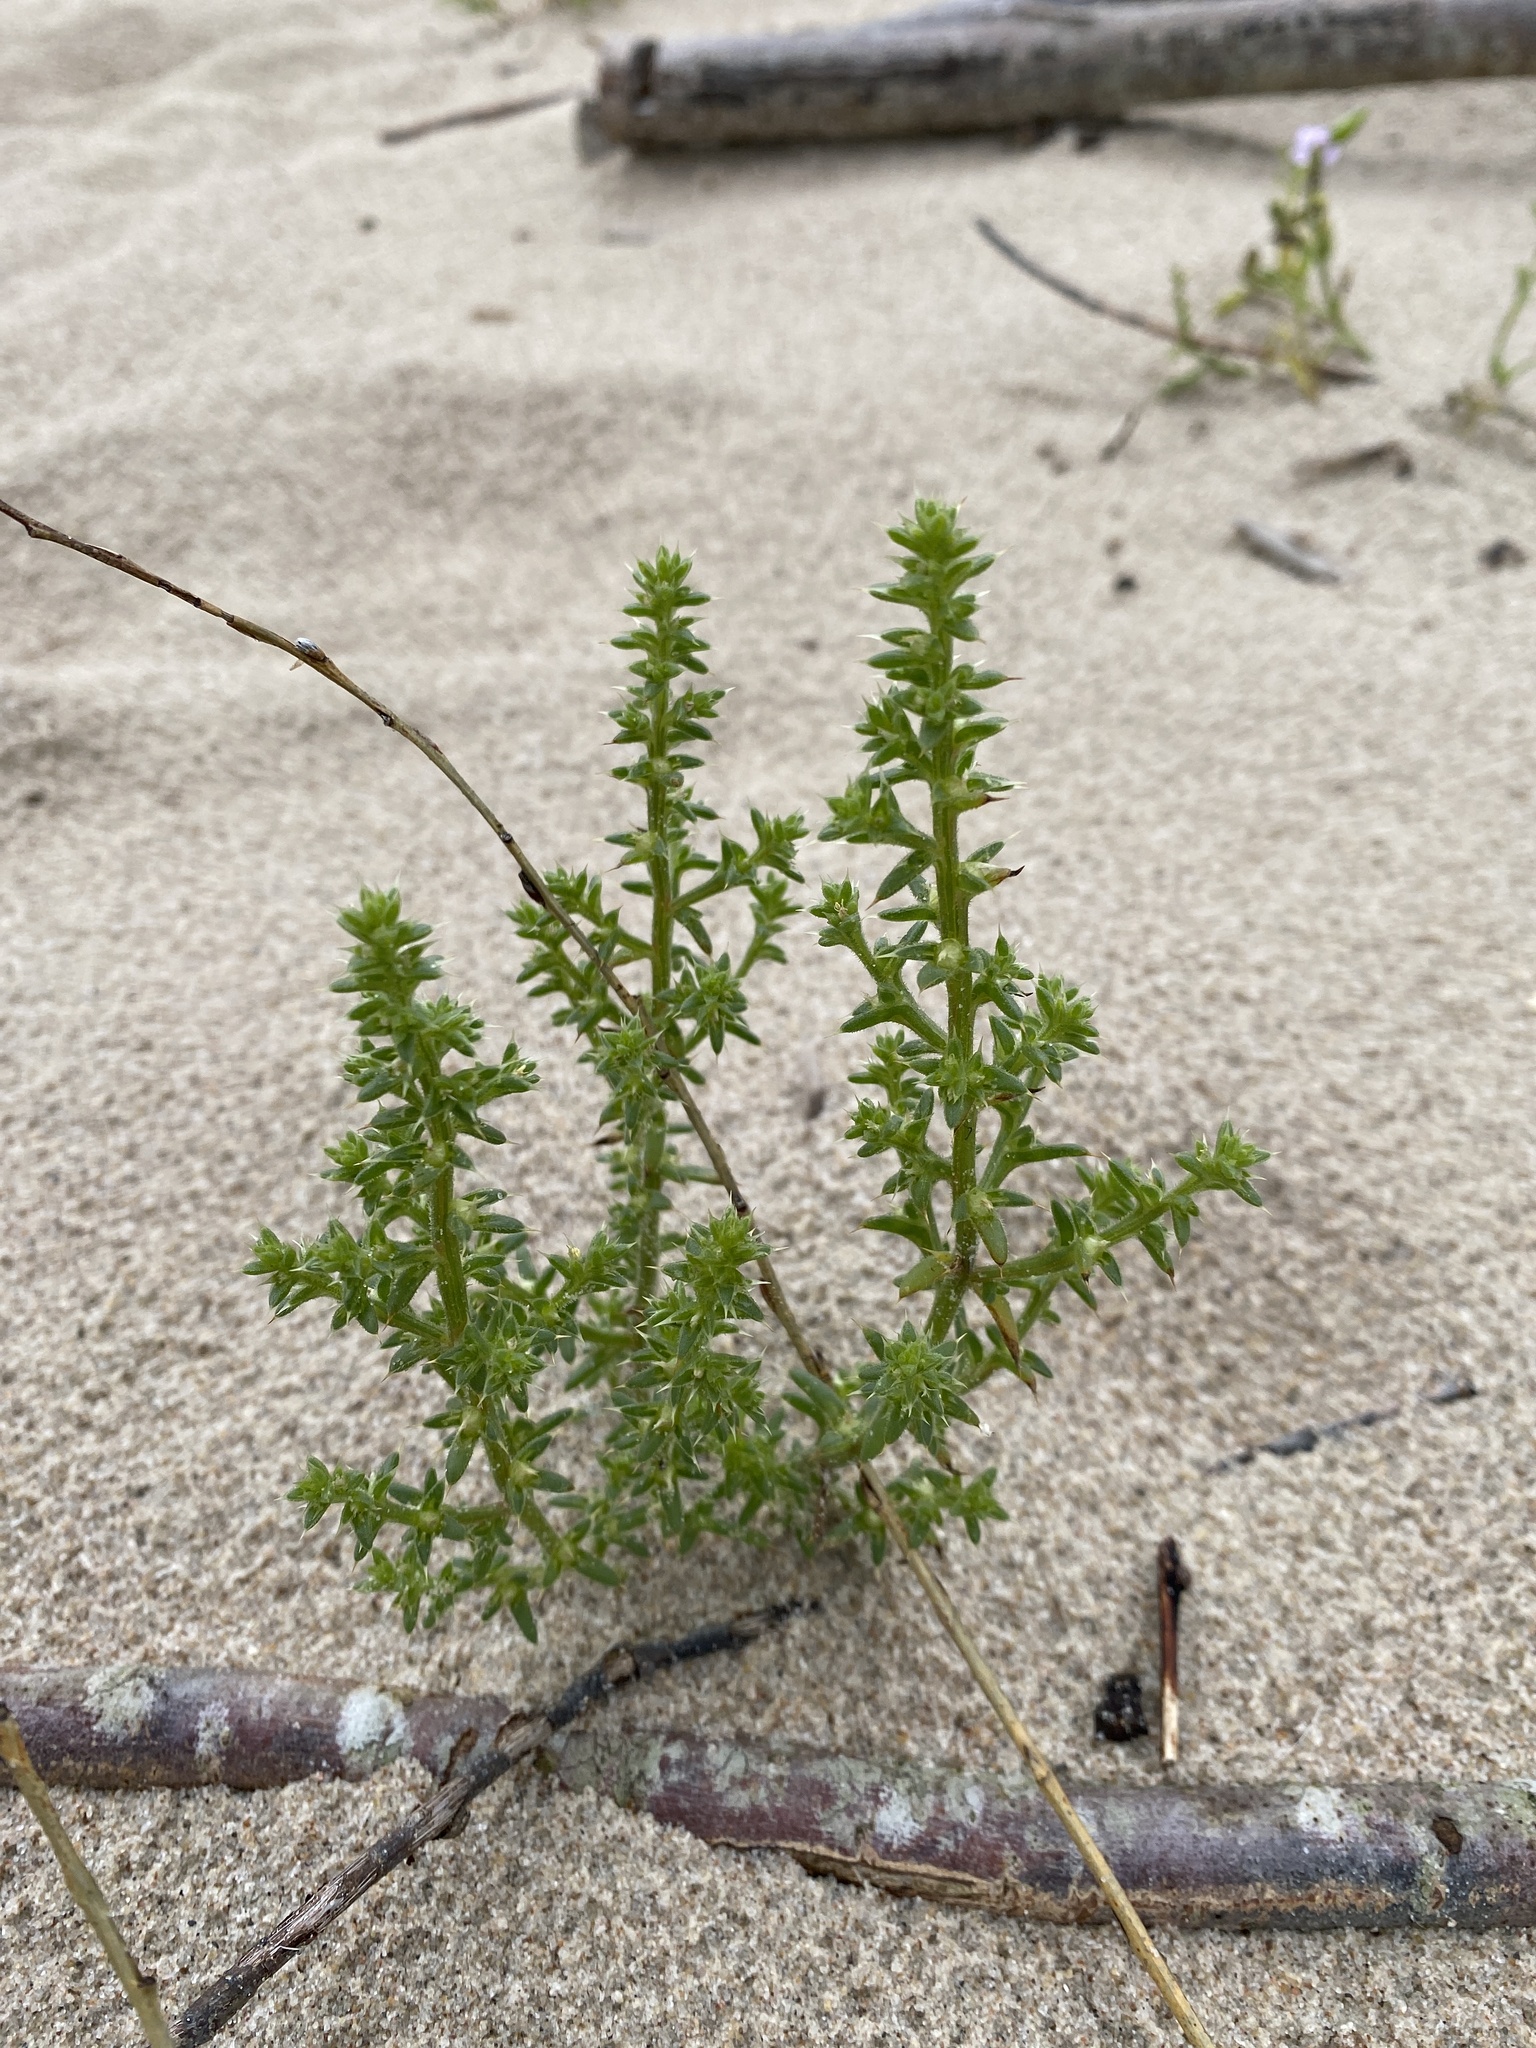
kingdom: Plantae
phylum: Tracheophyta
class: Magnoliopsida
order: Caryophyllales
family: Amaranthaceae
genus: Salsola
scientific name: Salsola kali
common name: Saltwort
